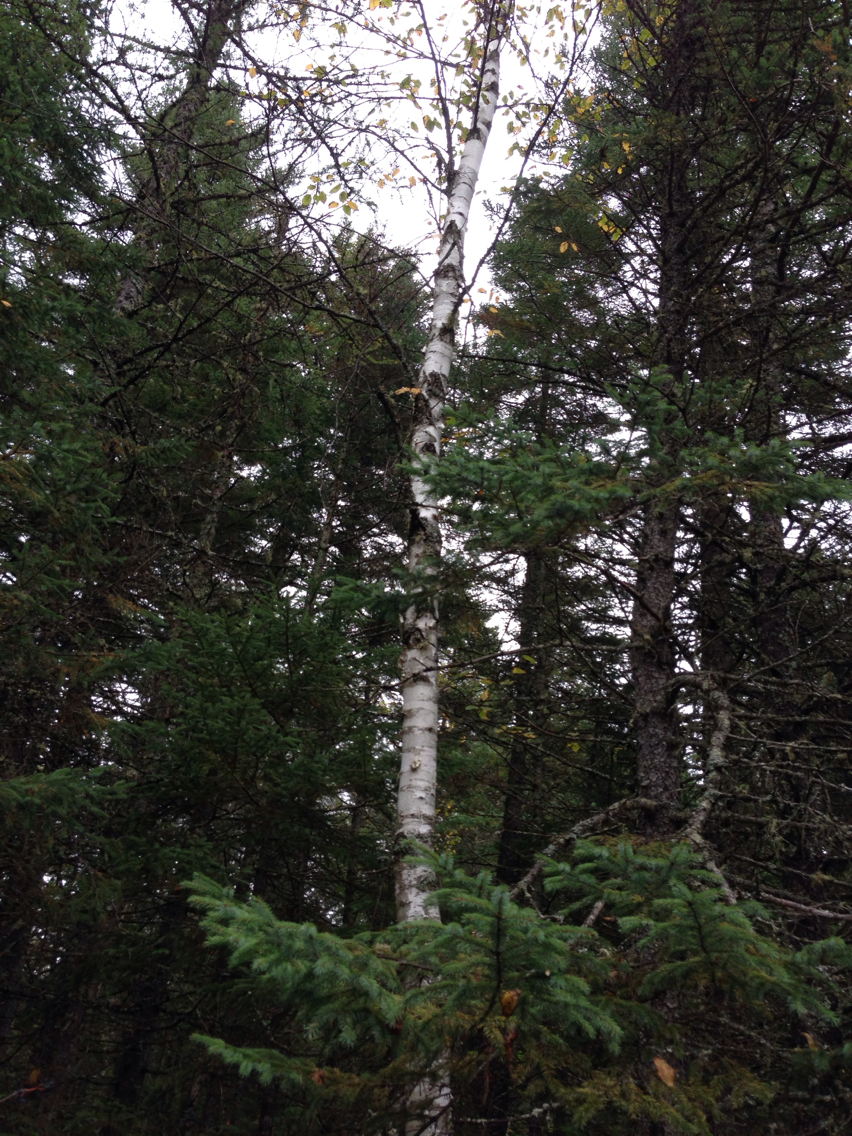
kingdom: Plantae
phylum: Tracheophyta
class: Magnoliopsida
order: Fagales
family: Betulaceae
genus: Betula
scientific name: Betula papyrifera
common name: Paper birch
